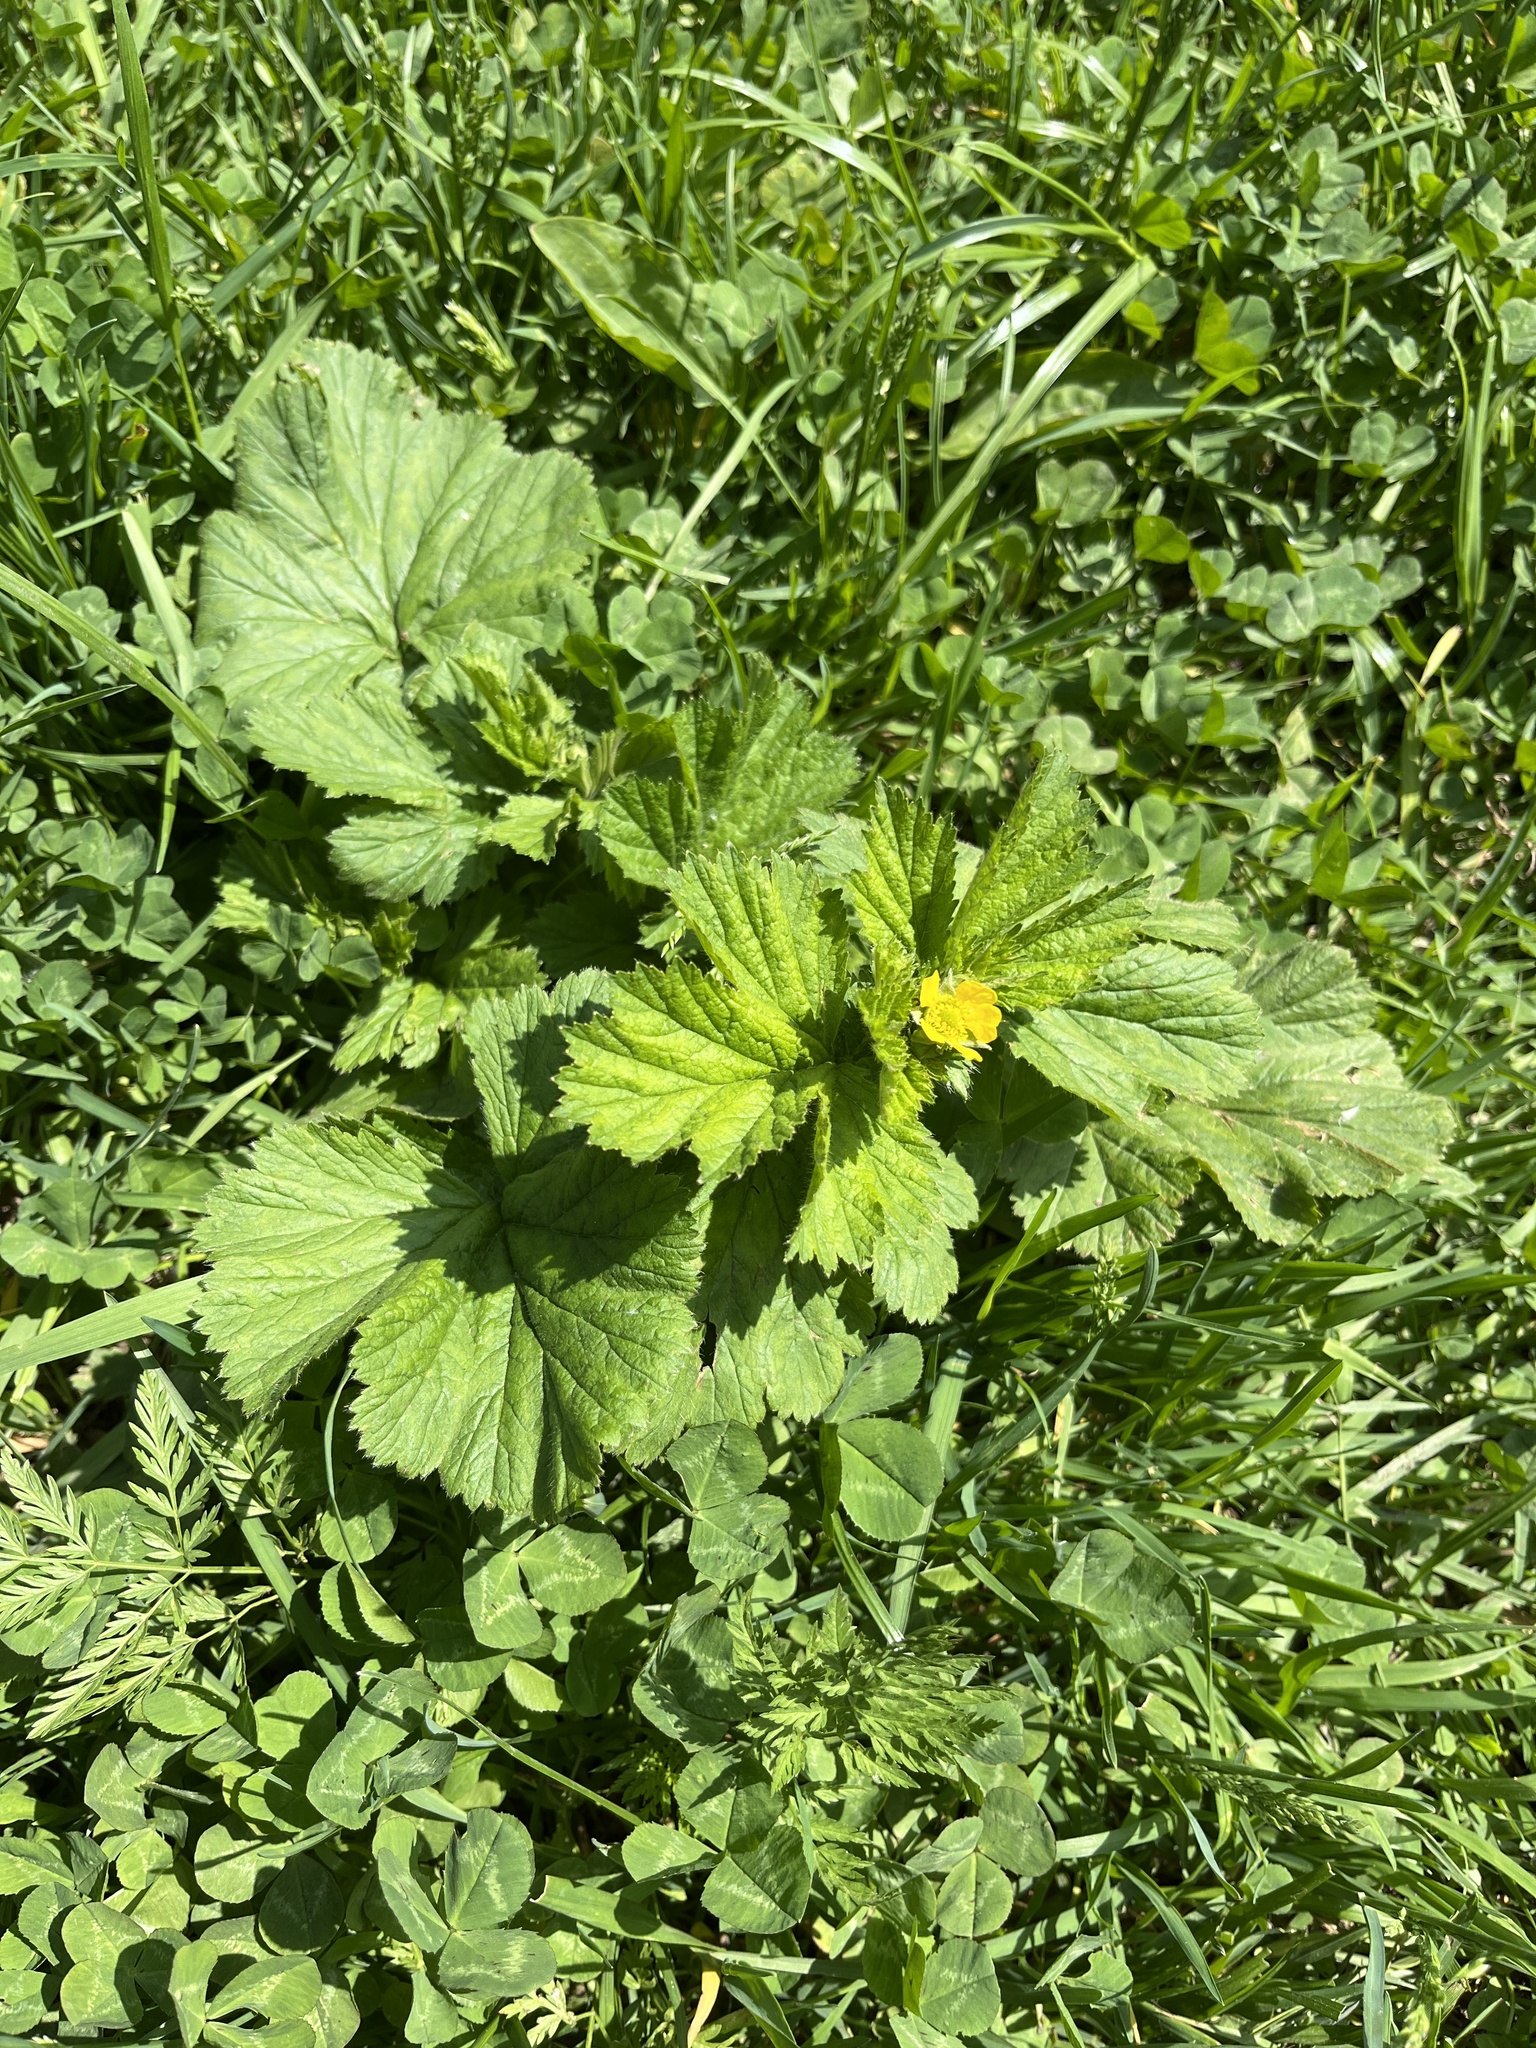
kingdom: Plantae
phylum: Tracheophyta
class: Magnoliopsida
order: Rosales
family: Rosaceae
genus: Geum
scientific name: Geum macrophyllum
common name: Large-leaved avens
